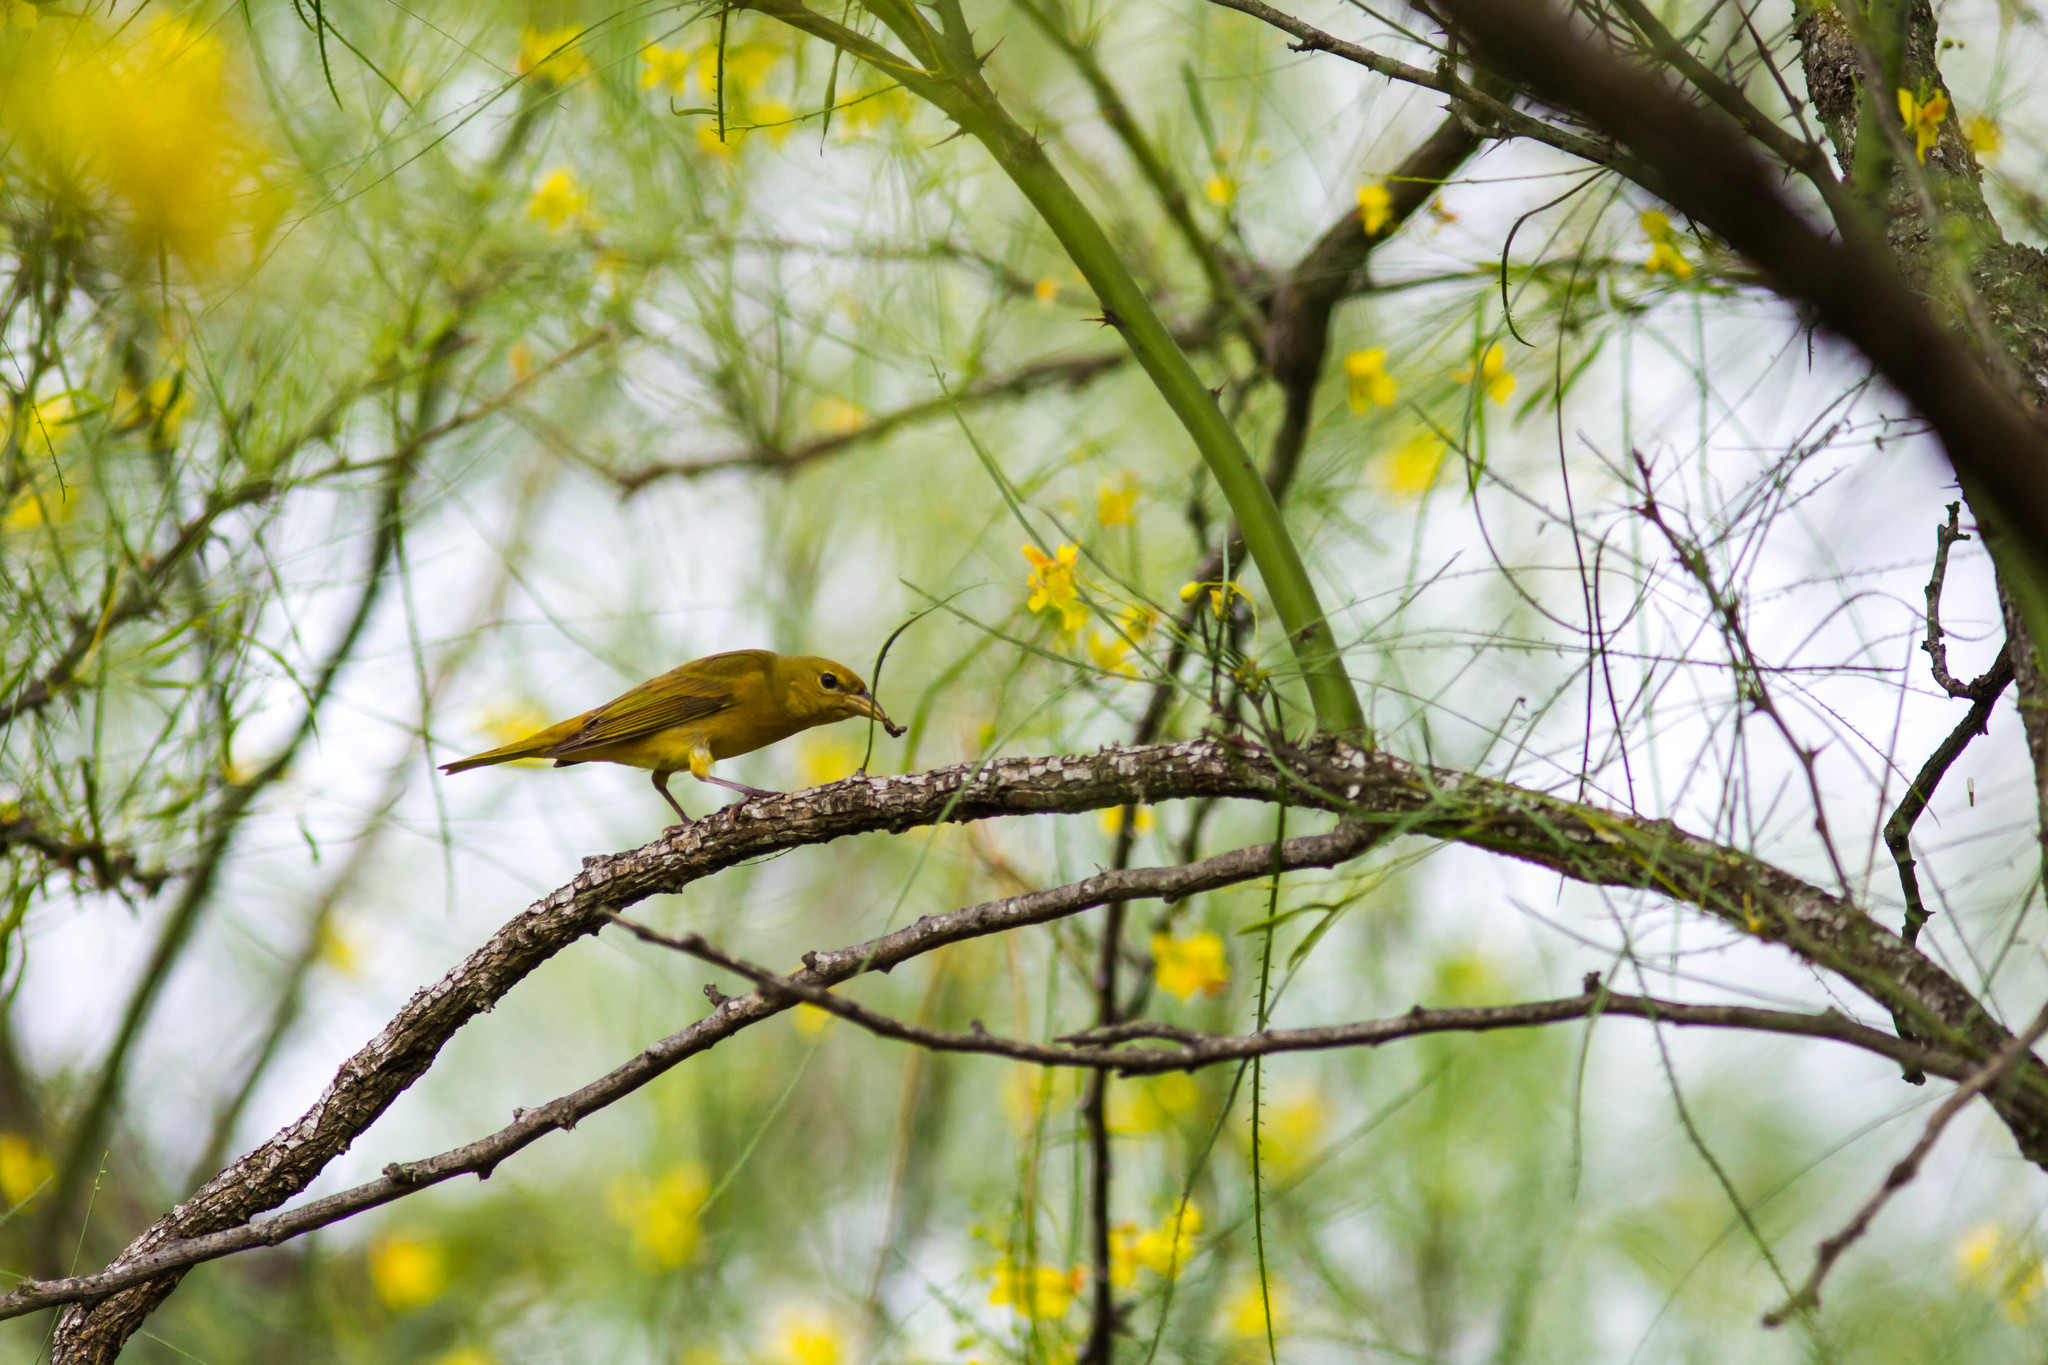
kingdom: Animalia
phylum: Chordata
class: Aves
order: Passeriformes
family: Cardinalidae
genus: Piranga
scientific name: Piranga rubra
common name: Summer tanager
